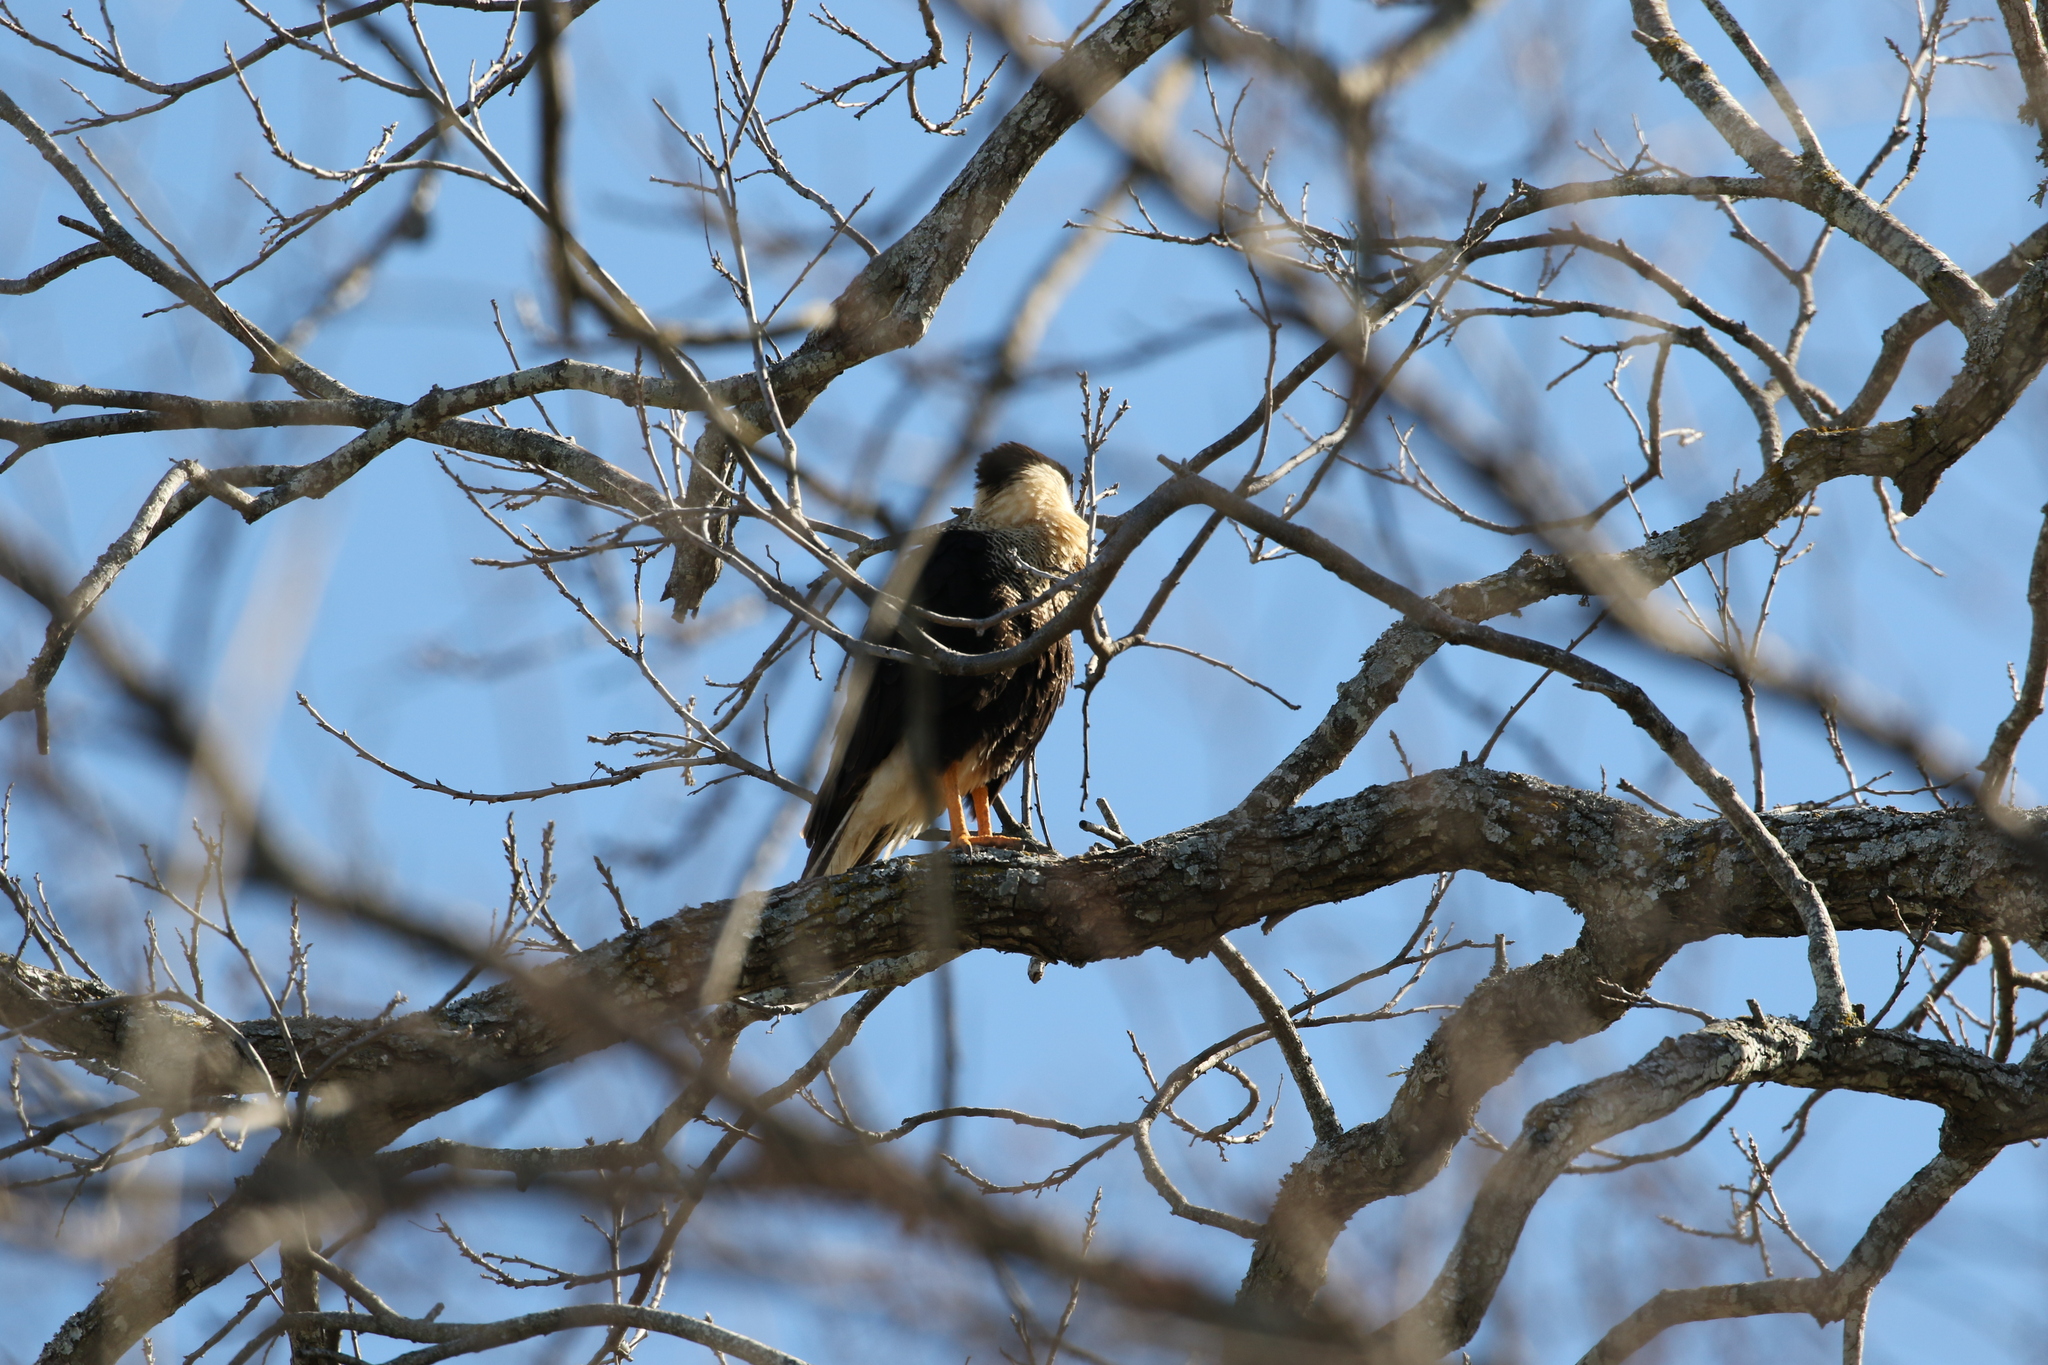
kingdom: Animalia
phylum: Chordata
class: Aves
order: Falconiformes
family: Falconidae
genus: Caracara
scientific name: Caracara plancus
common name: Southern caracara
